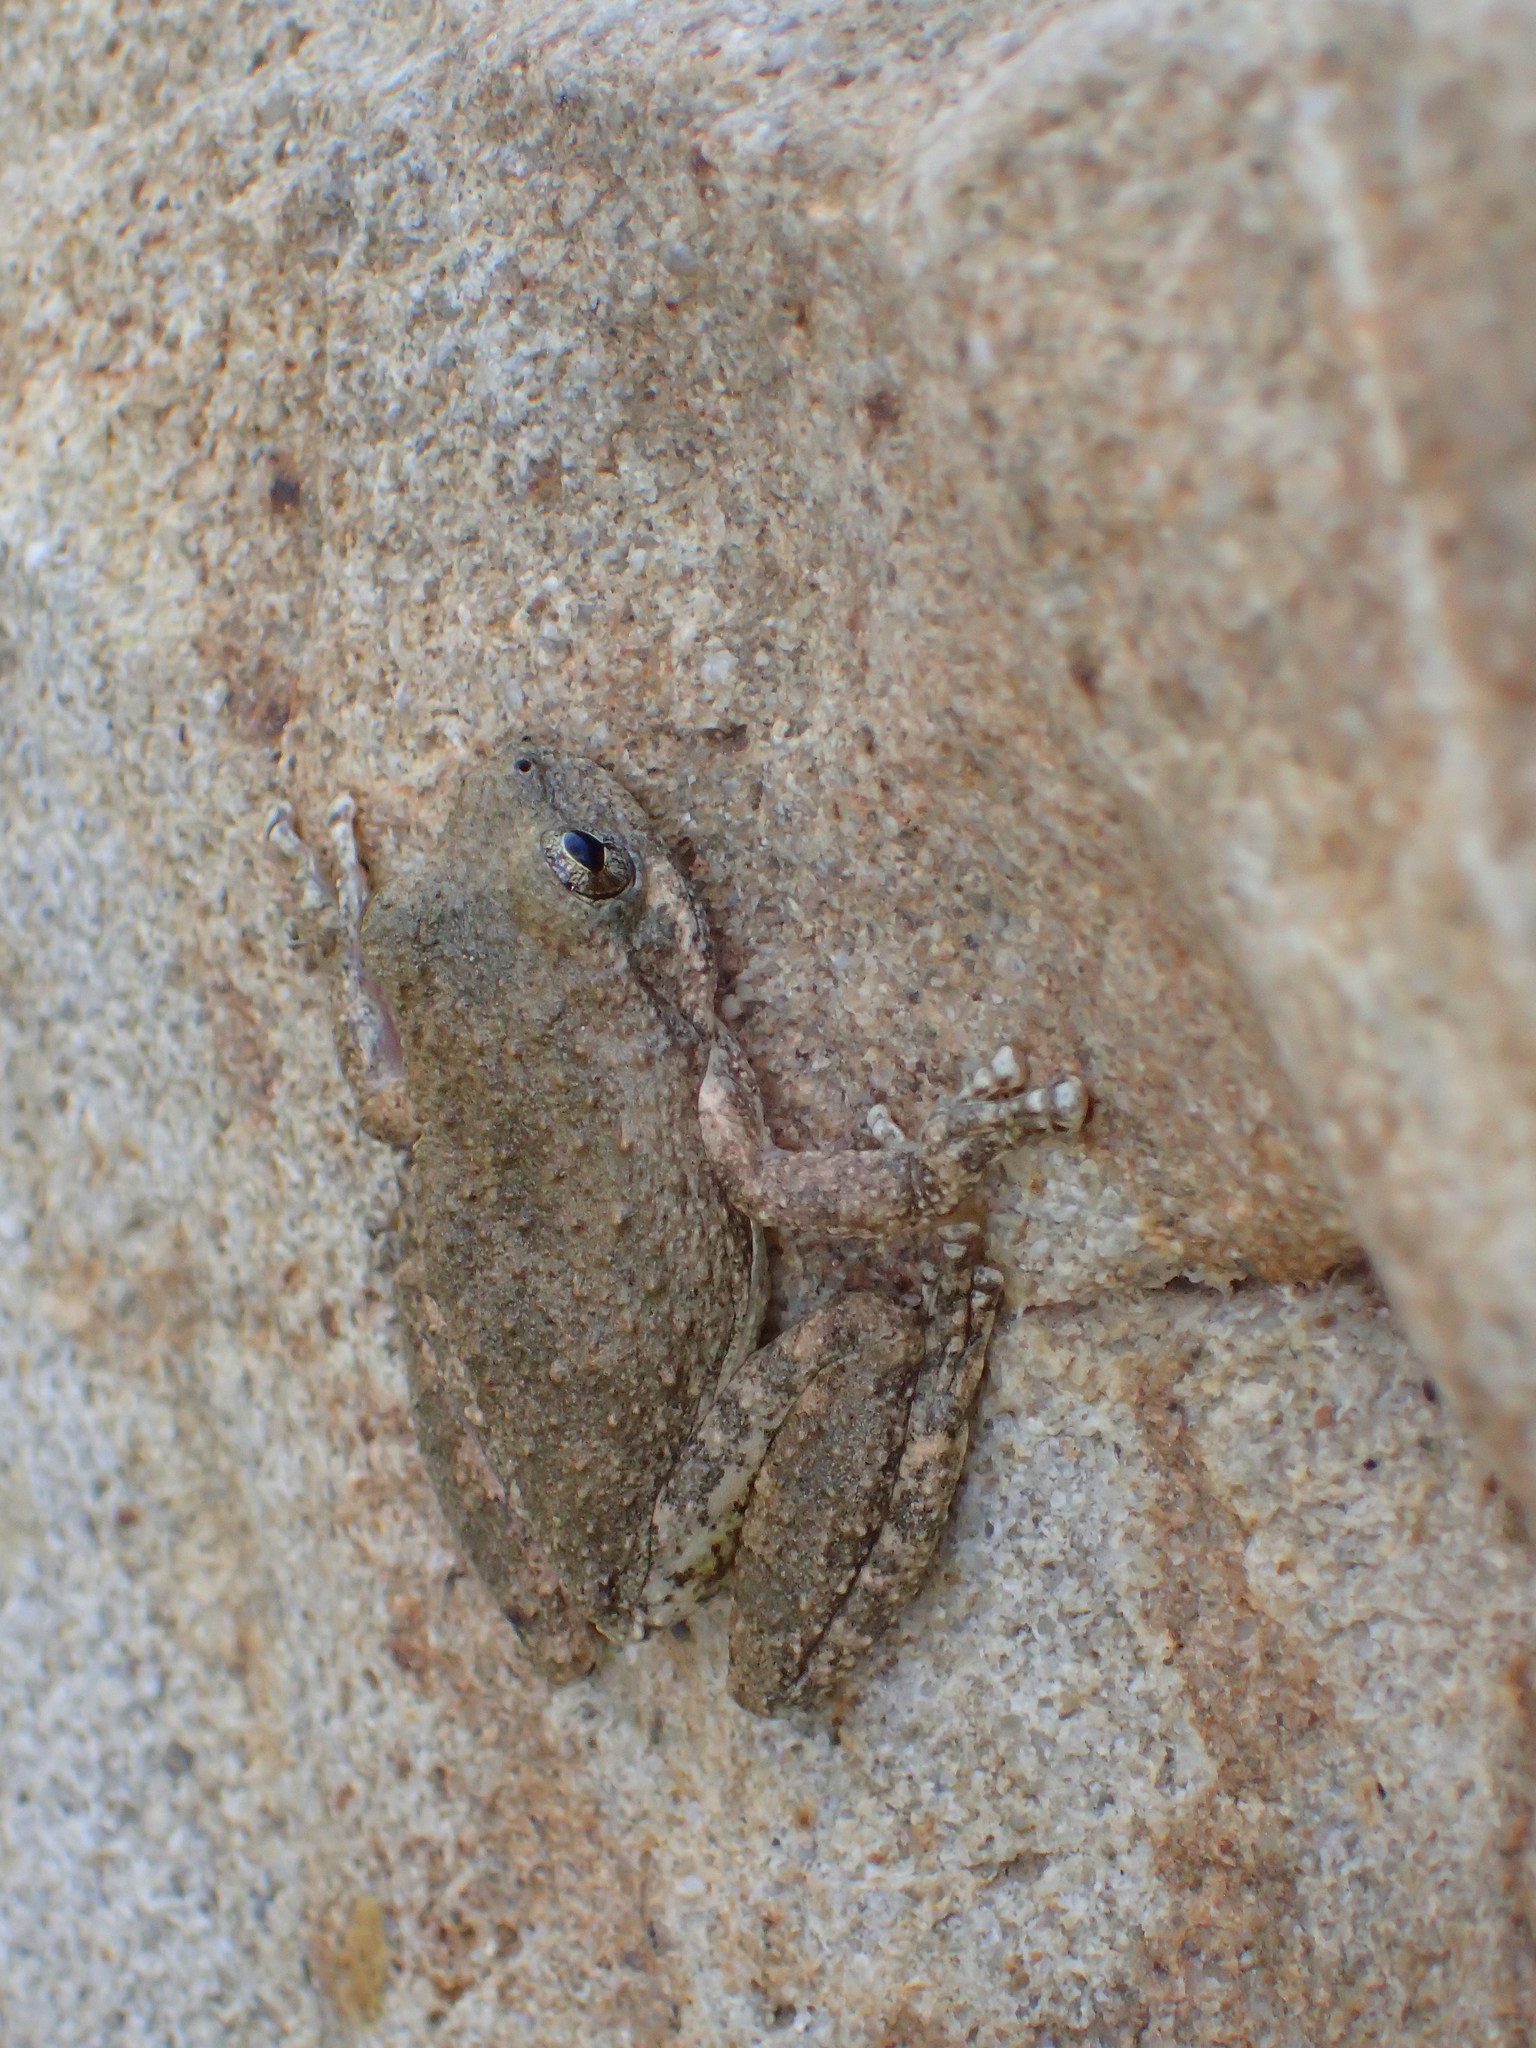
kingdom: Animalia
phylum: Chordata
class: Amphibia
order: Anura
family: Hylidae
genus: Pseudacris
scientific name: Pseudacris cadaverina
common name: California chorus frog
